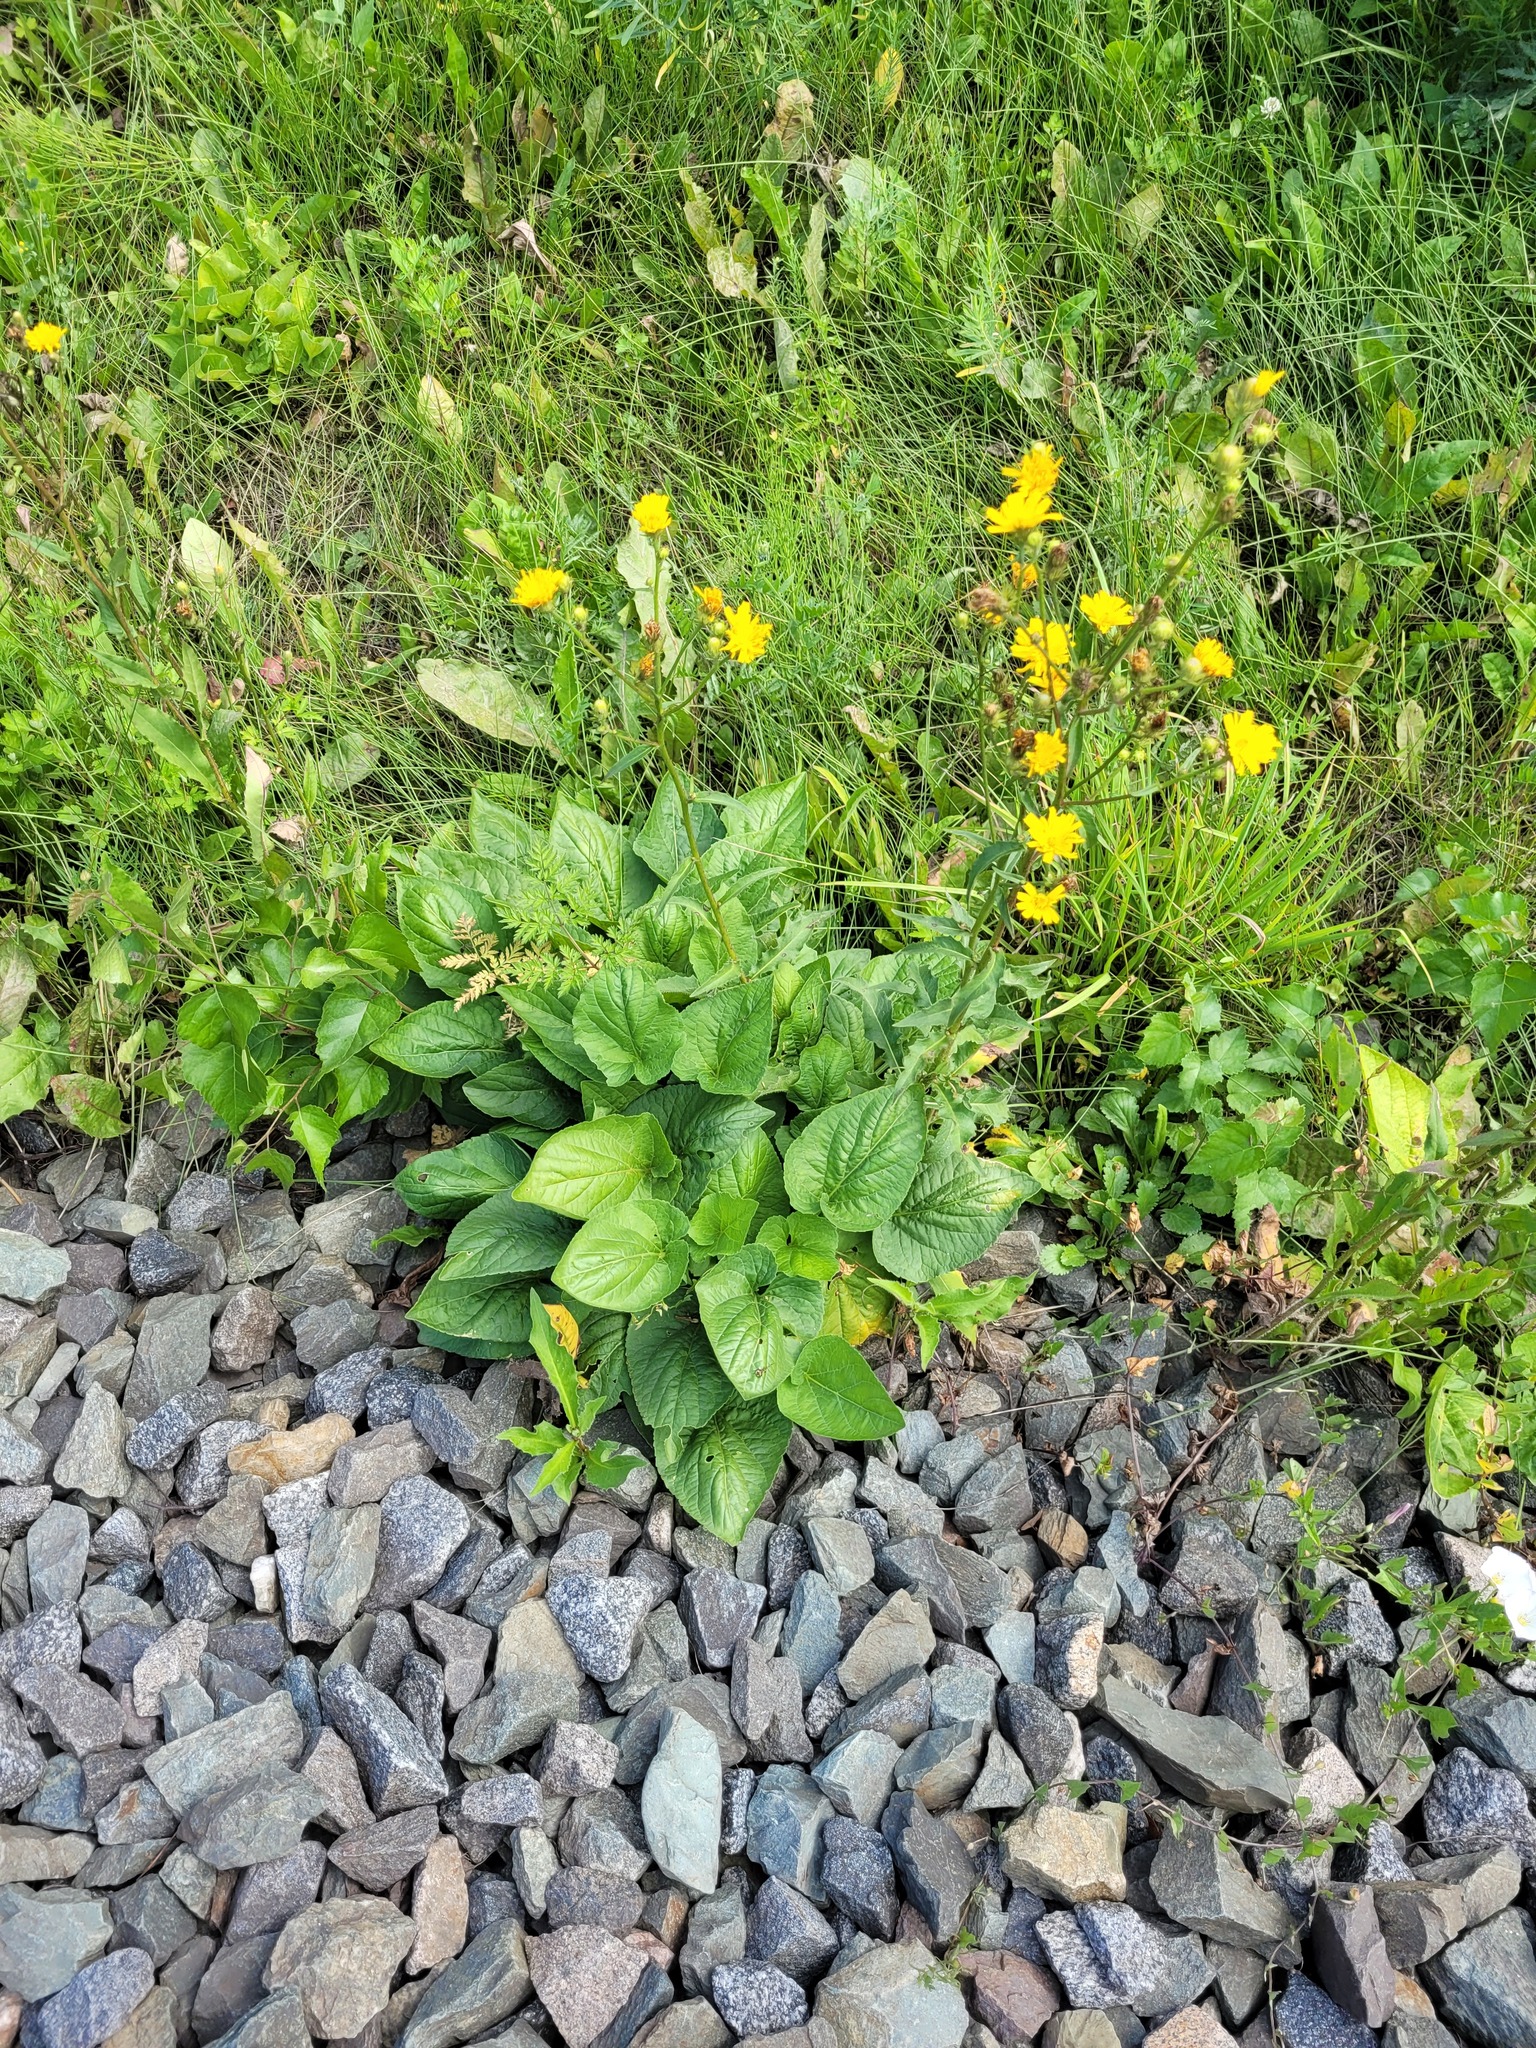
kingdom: Plantae
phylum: Tracheophyta
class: Magnoliopsida
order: Malpighiales
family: Violaceae
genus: Viola
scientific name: Viola hirta
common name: Hairy violet
